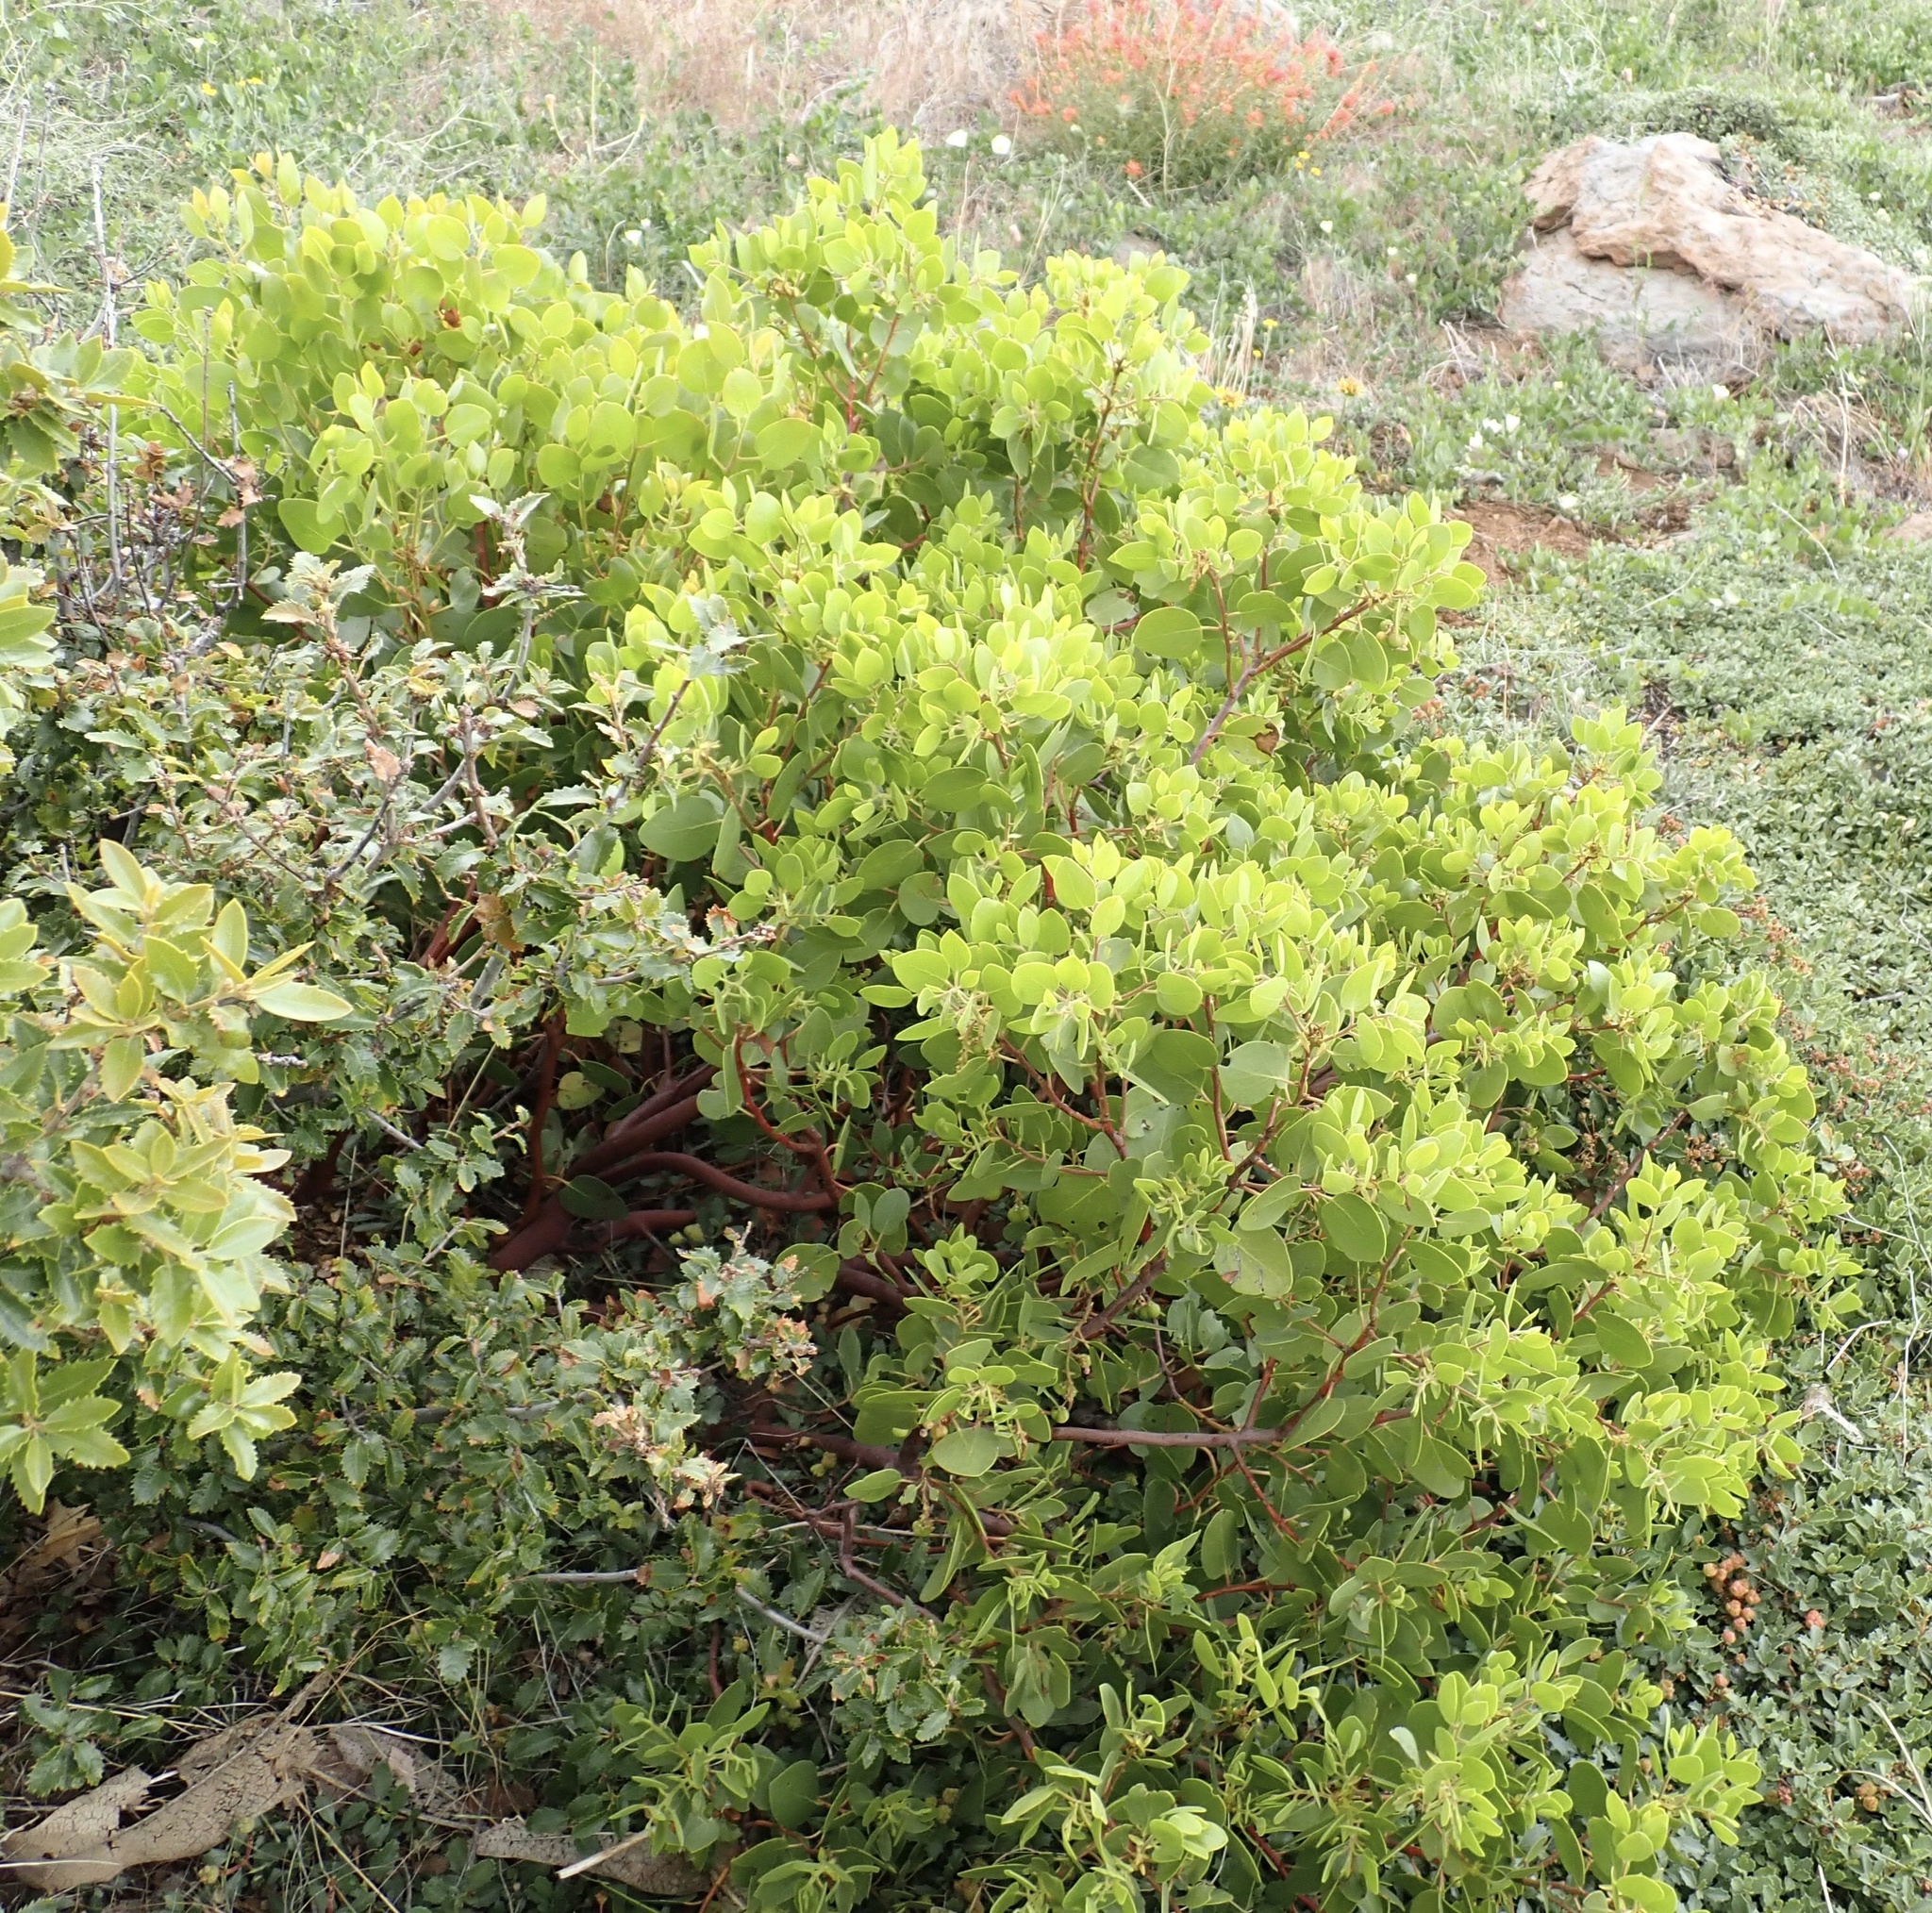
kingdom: Plantae
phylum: Tracheophyta
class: Magnoliopsida
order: Ericales
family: Ericaceae
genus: Arctostaphylos
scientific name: Arctostaphylos patula
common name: Green-leaf manzanita
